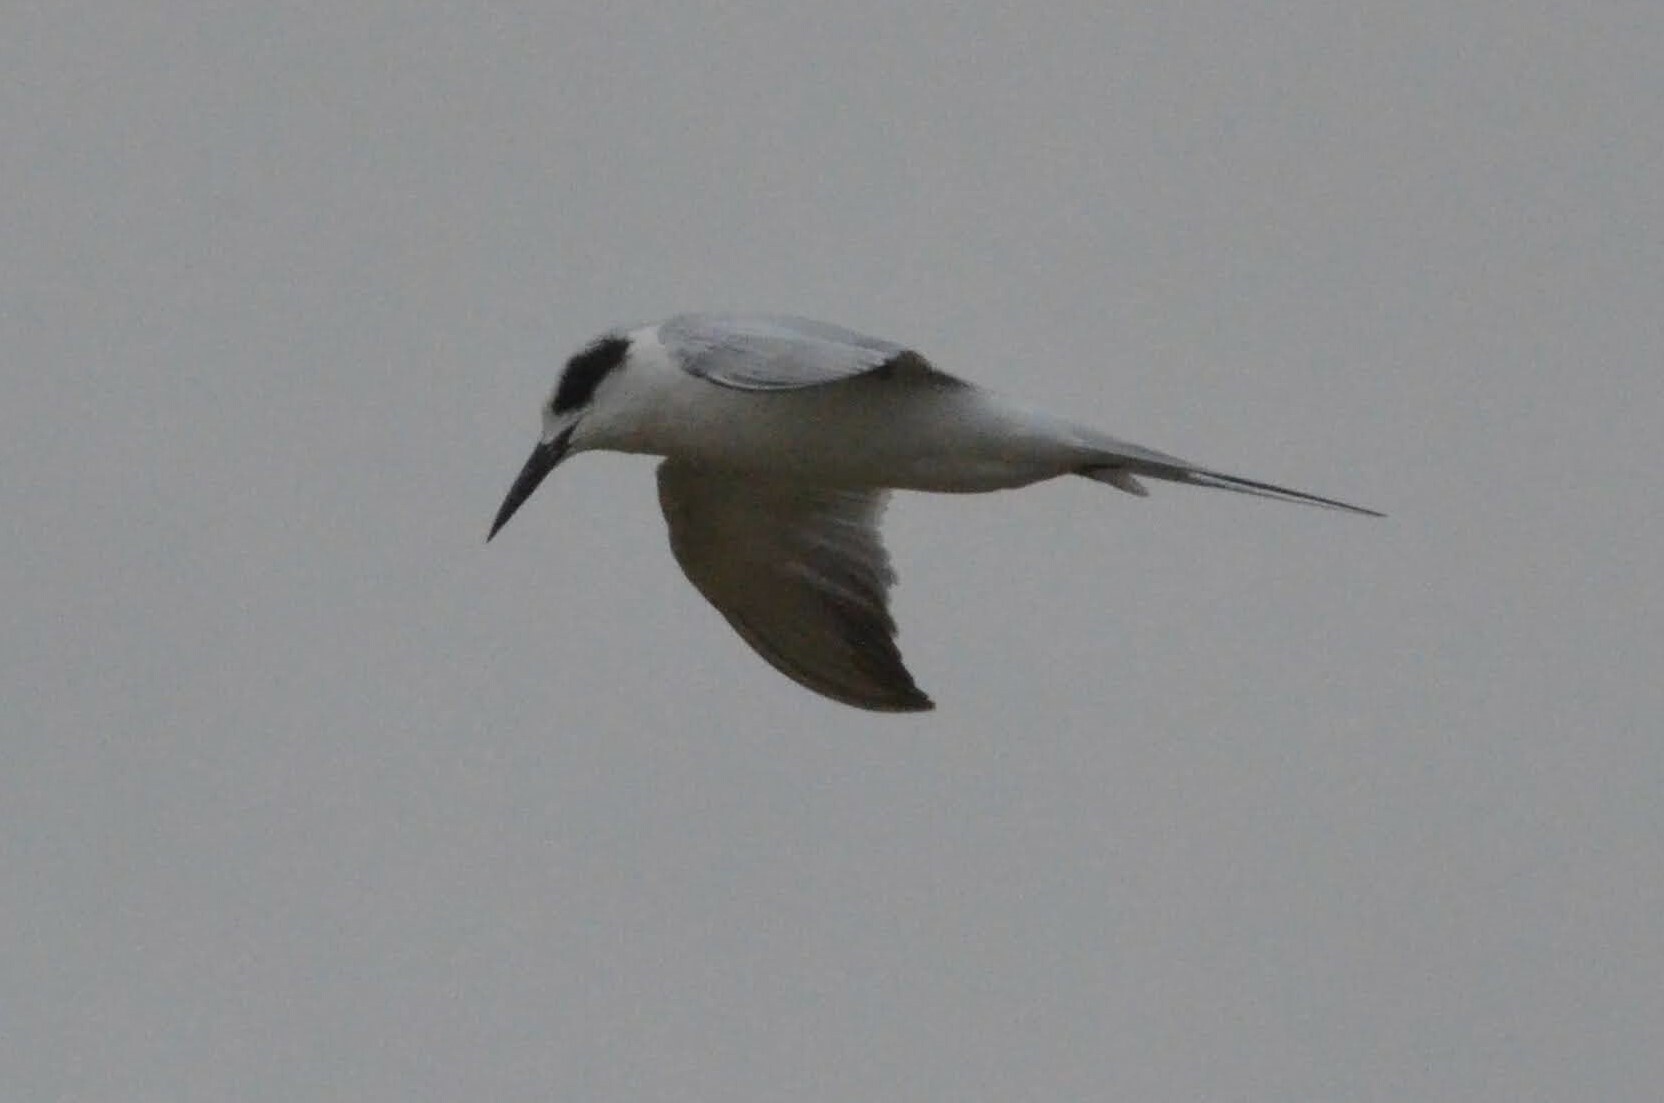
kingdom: Animalia
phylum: Chordata
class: Aves
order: Charadriiformes
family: Laridae
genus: Sterna
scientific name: Sterna forsteri
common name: Forster's tern
